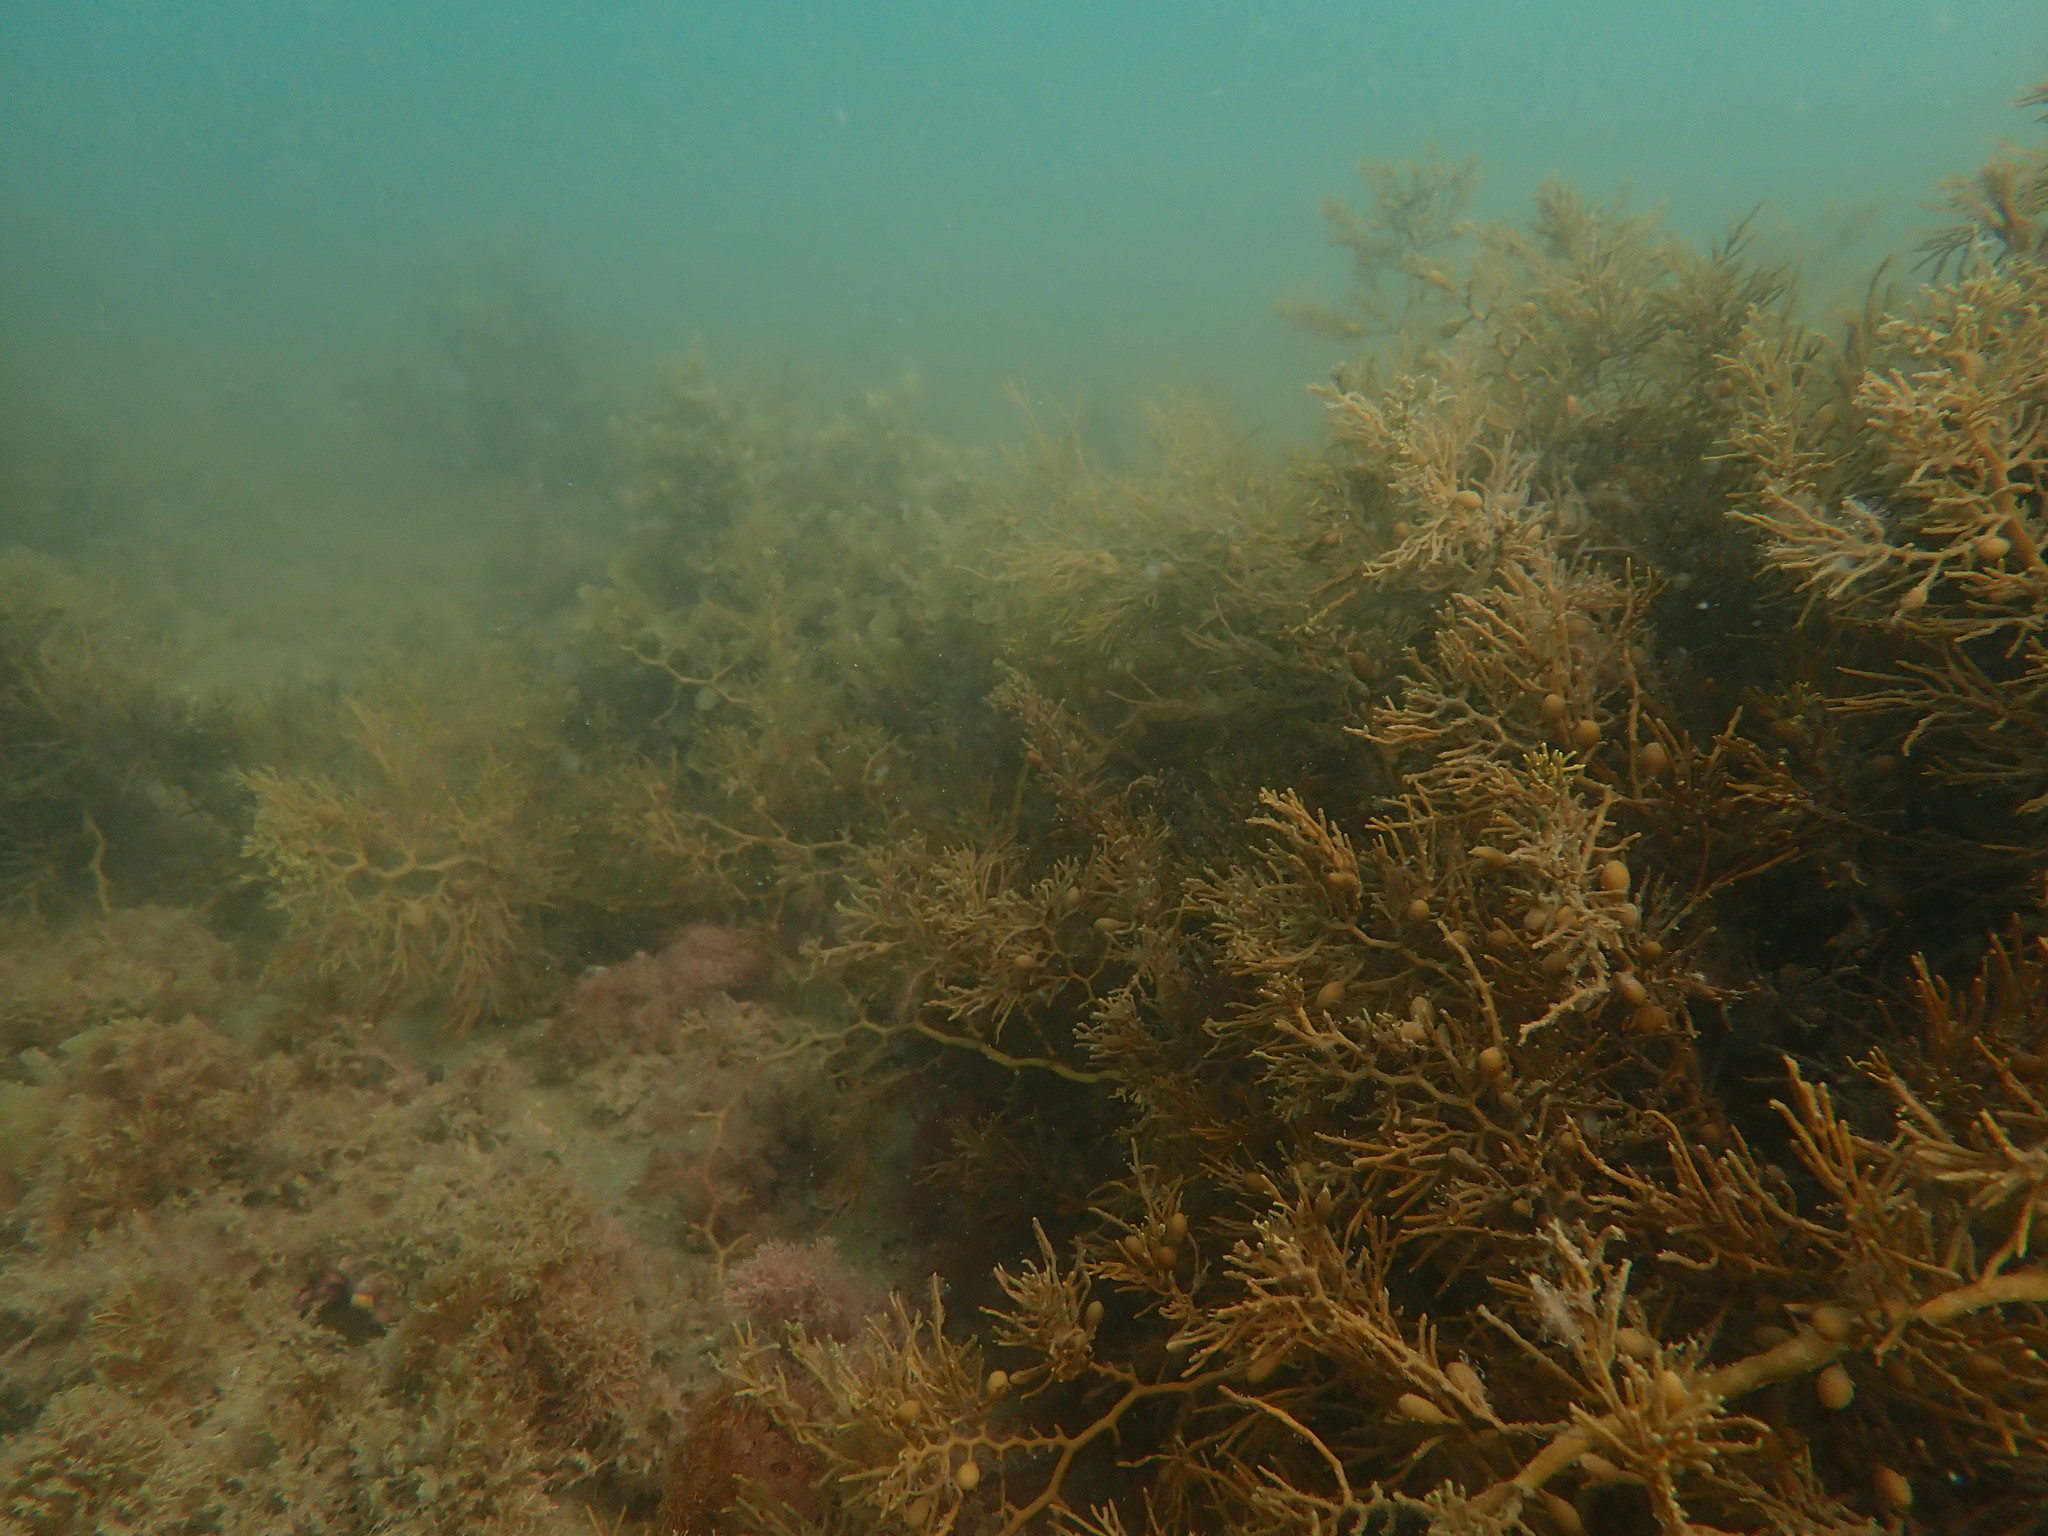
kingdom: Chromista
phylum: Ochrophyta
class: Phaeophyceae
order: Fucales
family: Sargassaceae
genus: Cystophora
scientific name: Cystophora retroflexa
